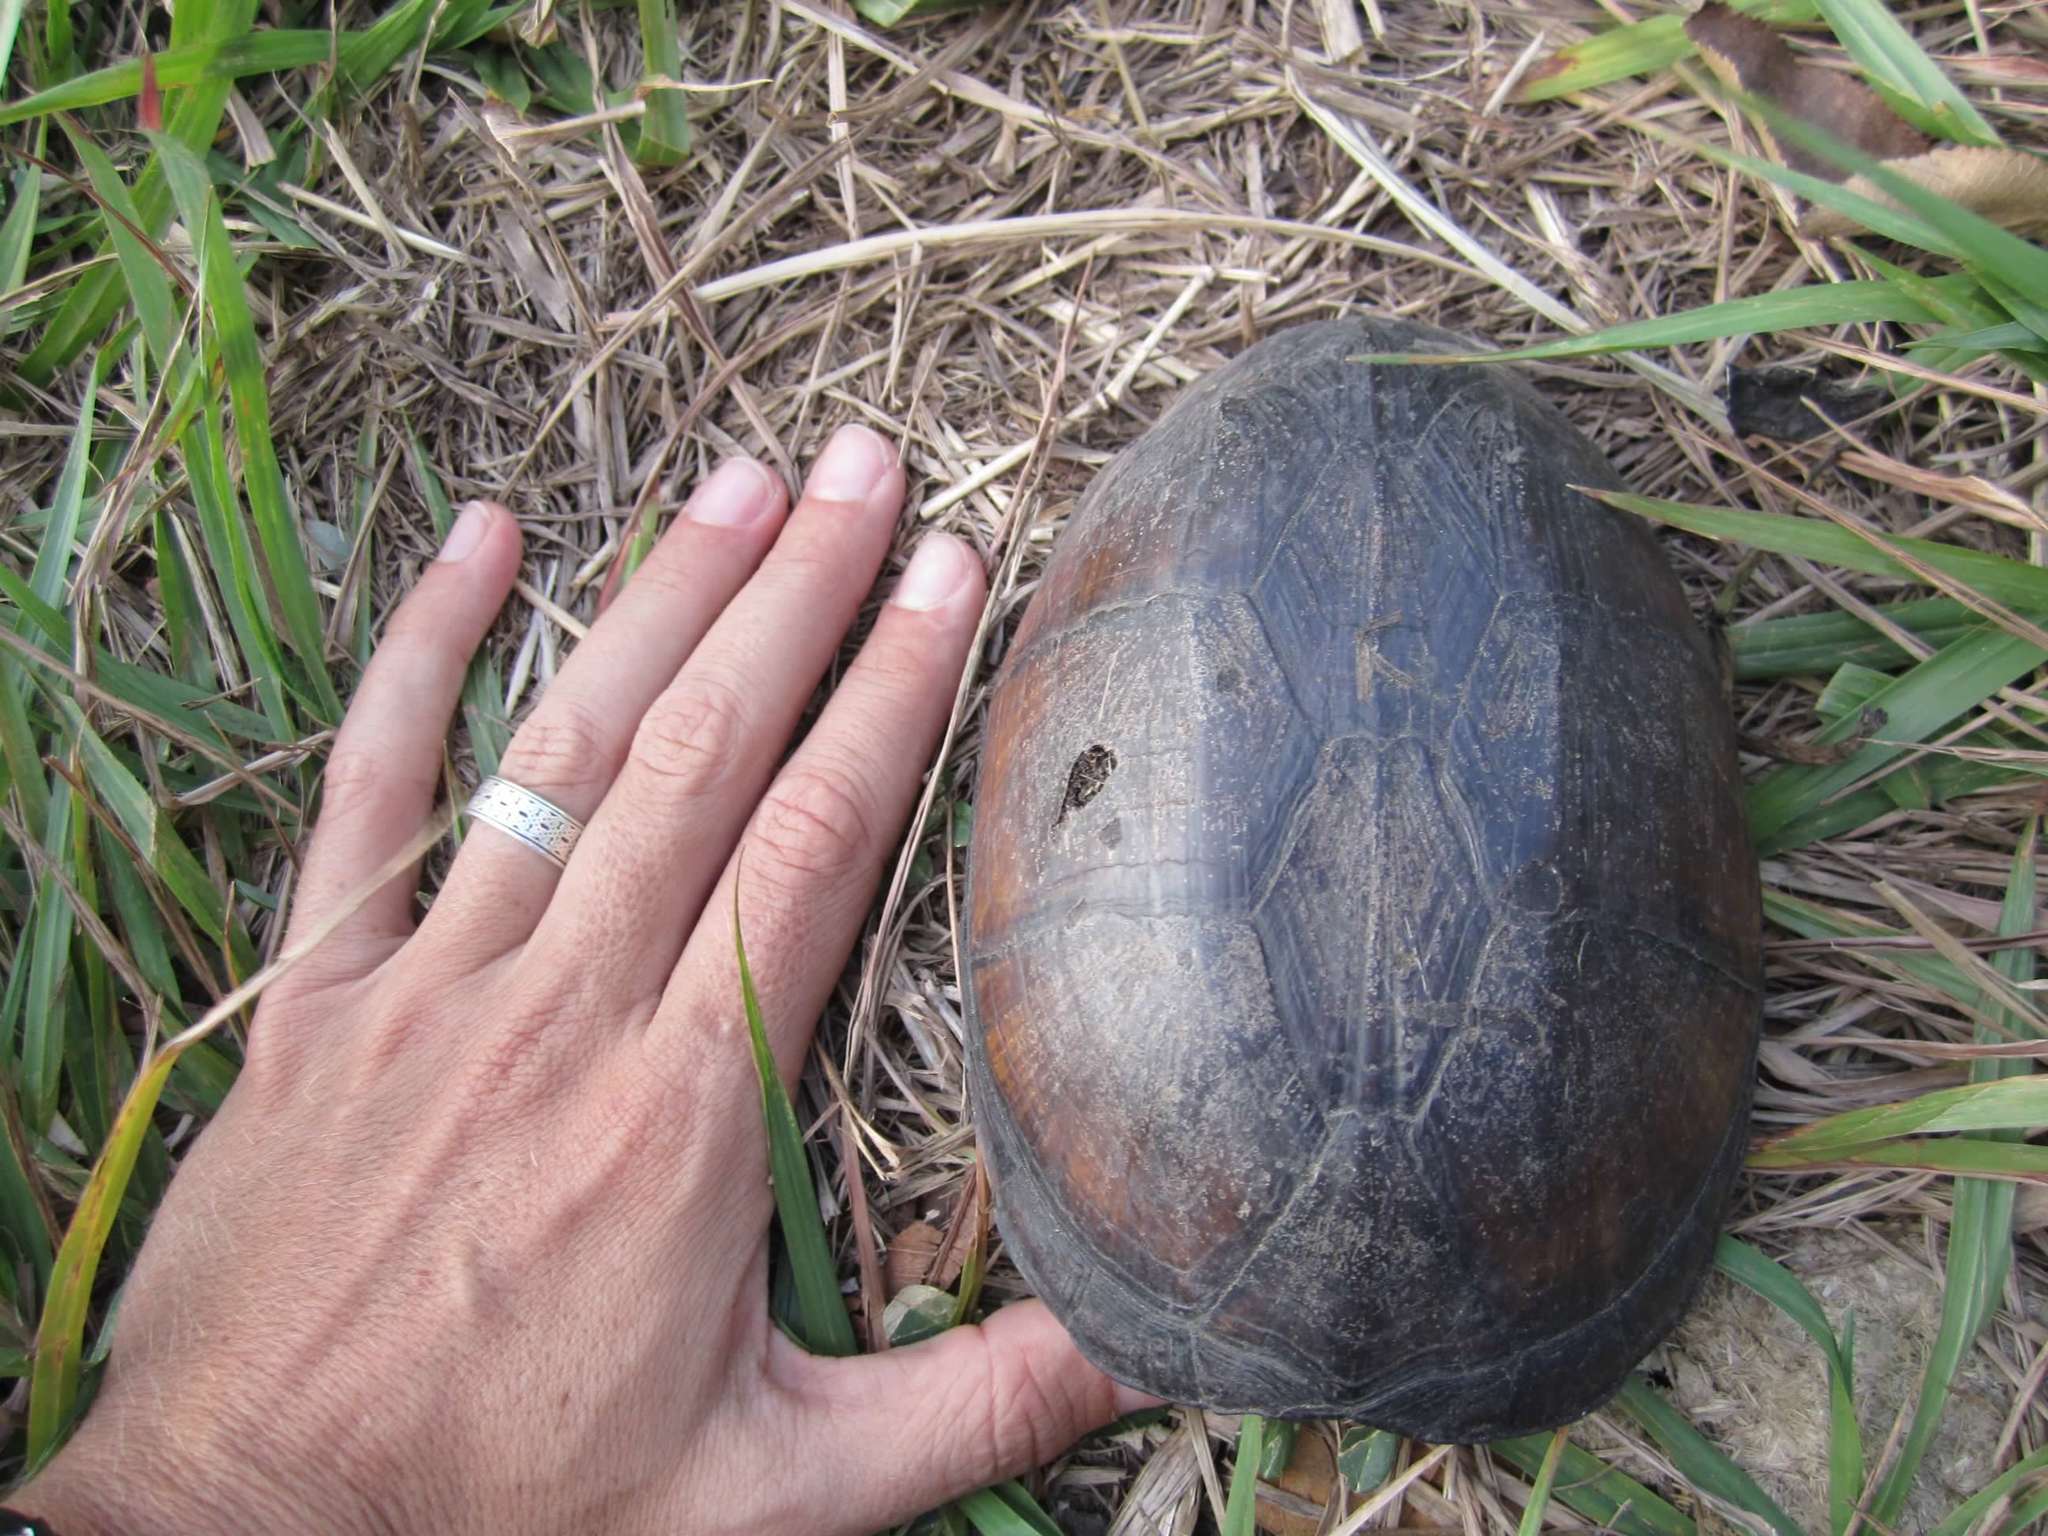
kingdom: Animalia
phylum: Chordata
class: Testudines
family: Kinosternidae
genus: Kinosternon
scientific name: Kinosternon scorpioides
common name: Scorpion mud turtle
